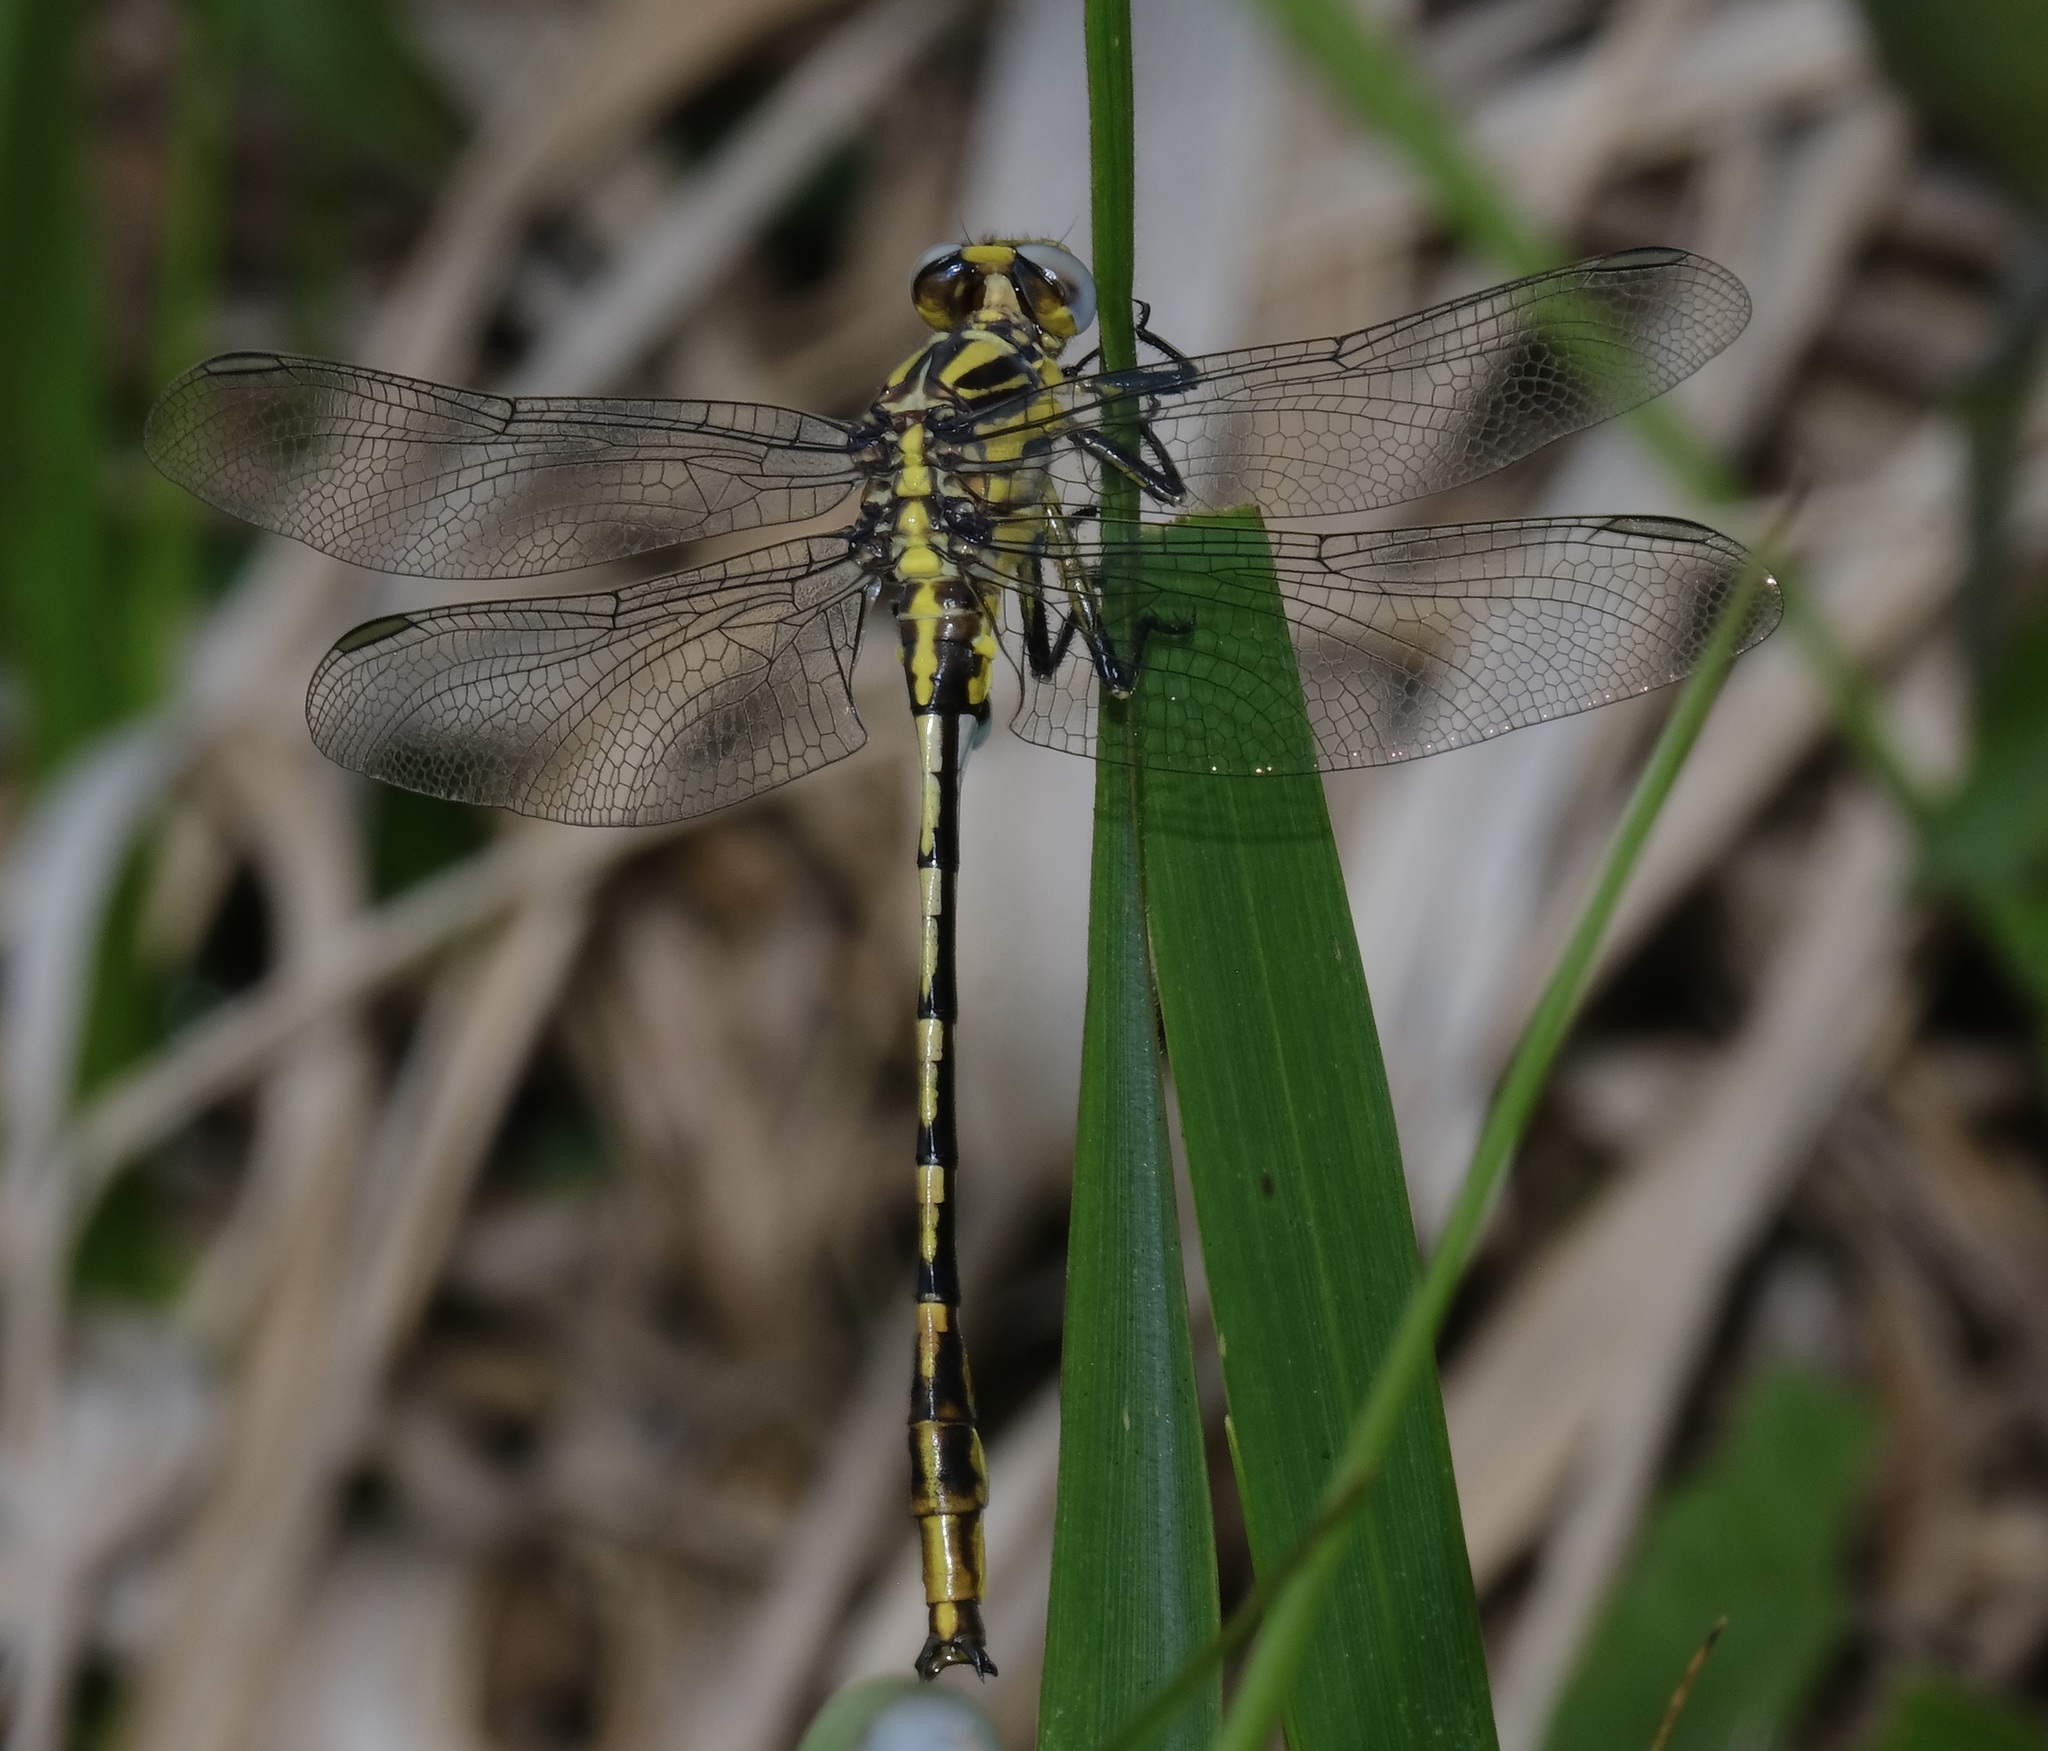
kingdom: Animalia
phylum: Arthropoda
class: Insecta
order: Odonata
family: Gomphidae
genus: Phanogomphus
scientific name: Phanogomphus militaris
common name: Sulphur-tipped clubtail
